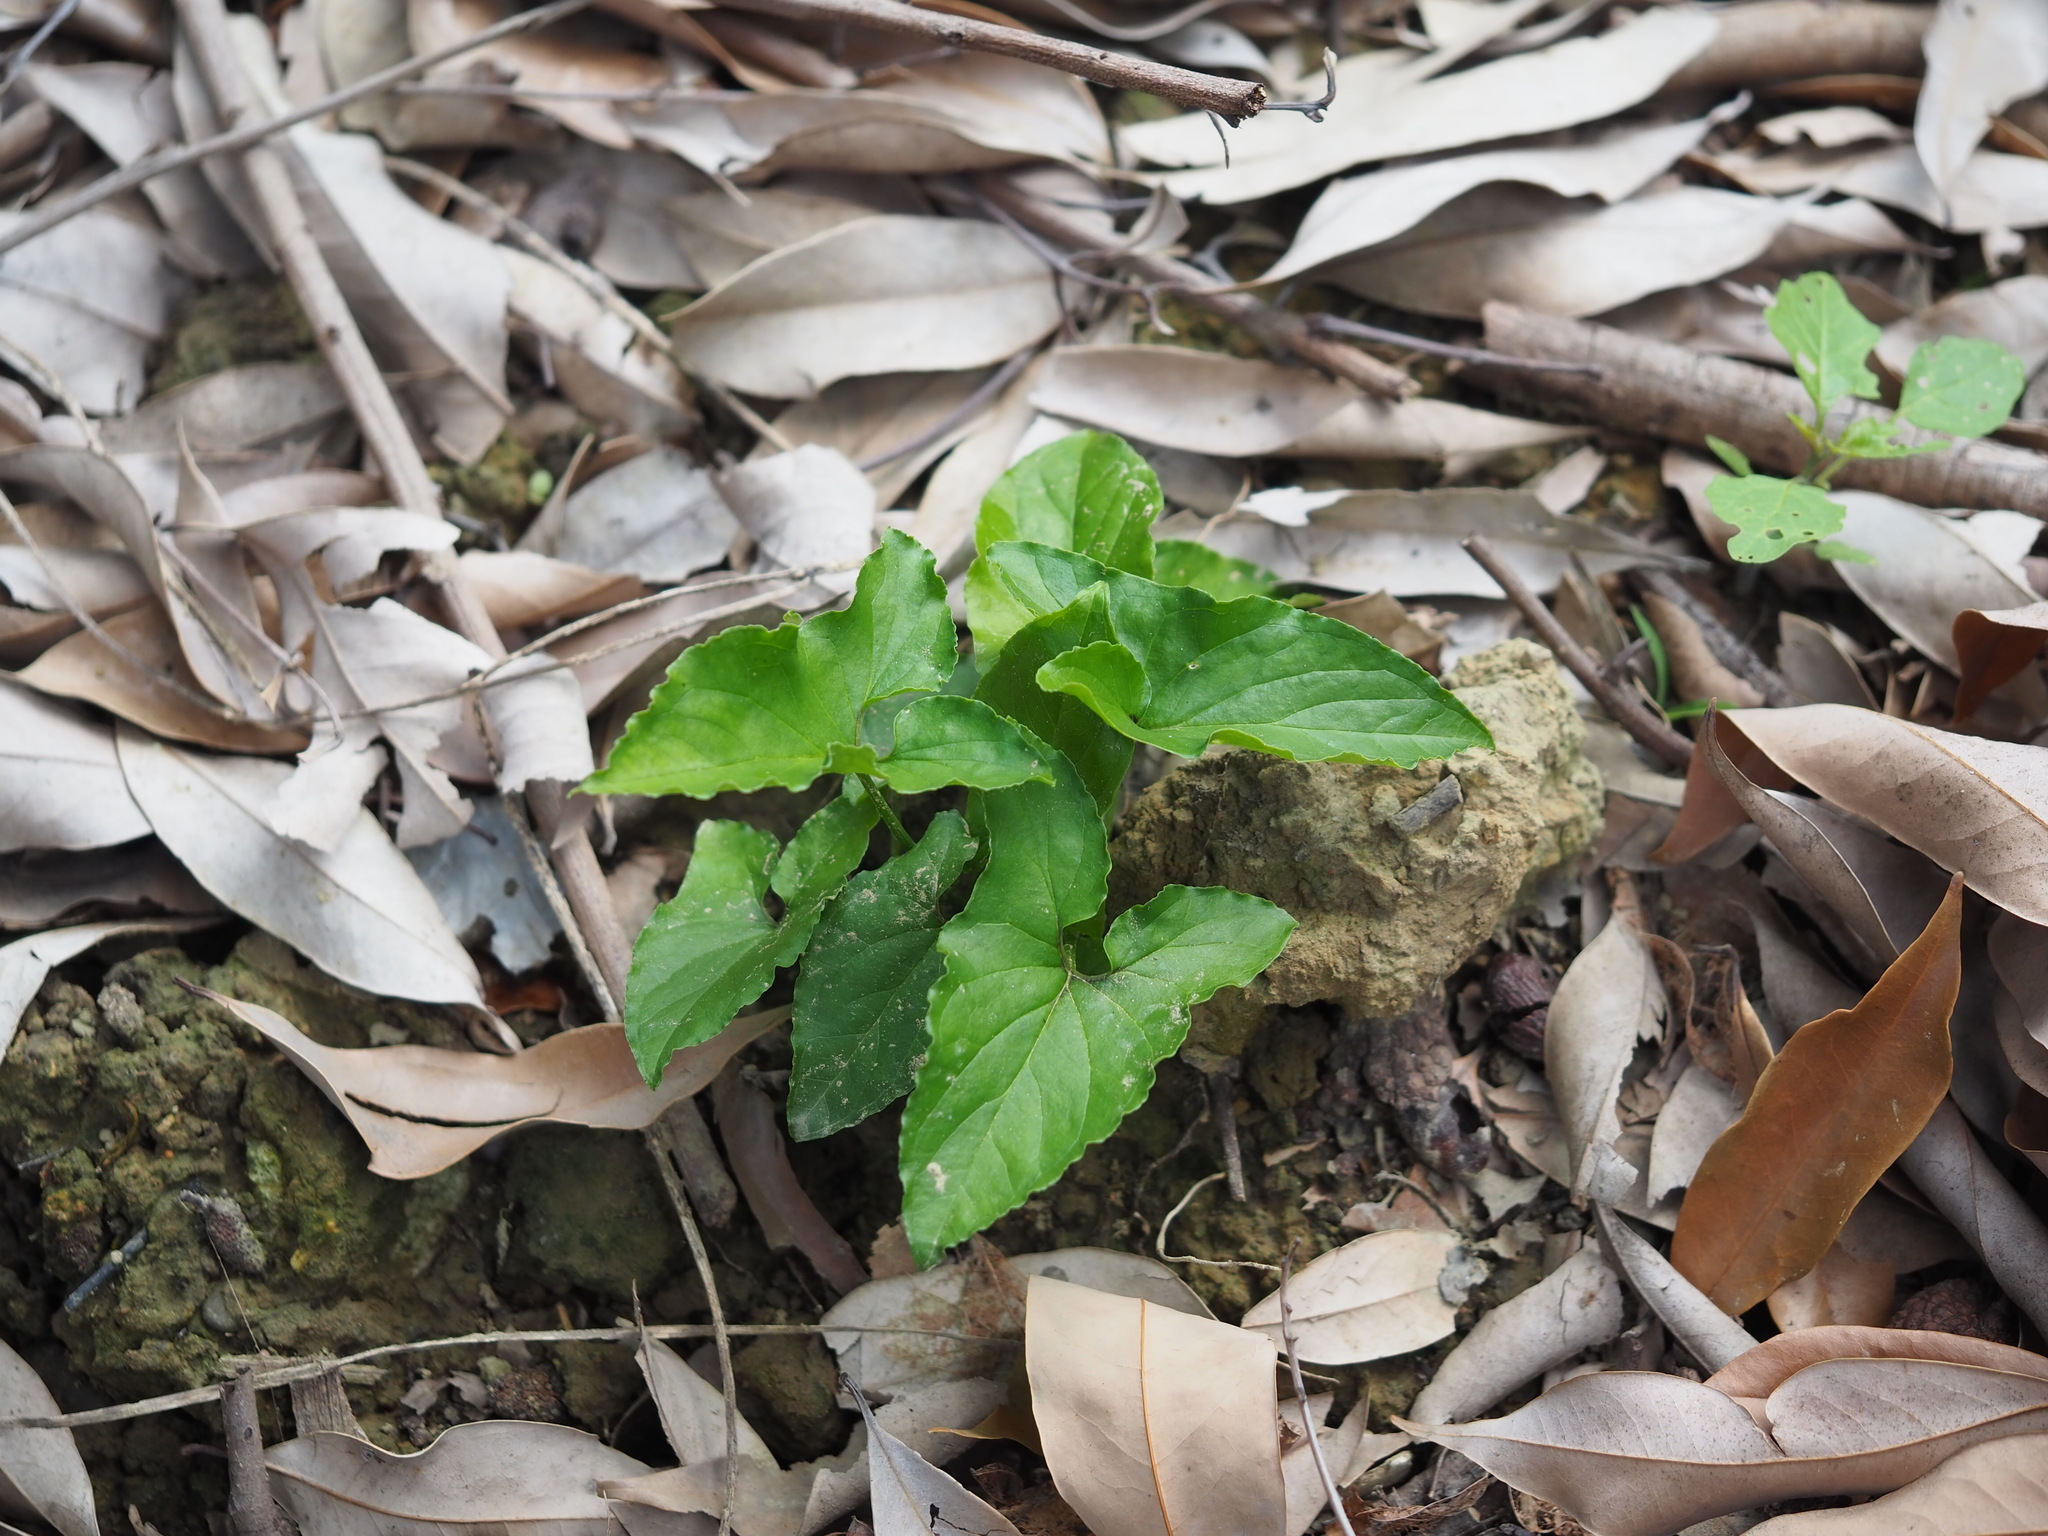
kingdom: Plantae
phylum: Tracheophyta
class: Liliopsida
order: Alismatales
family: Araceae
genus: Typhonium
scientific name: Typhonium blumei
